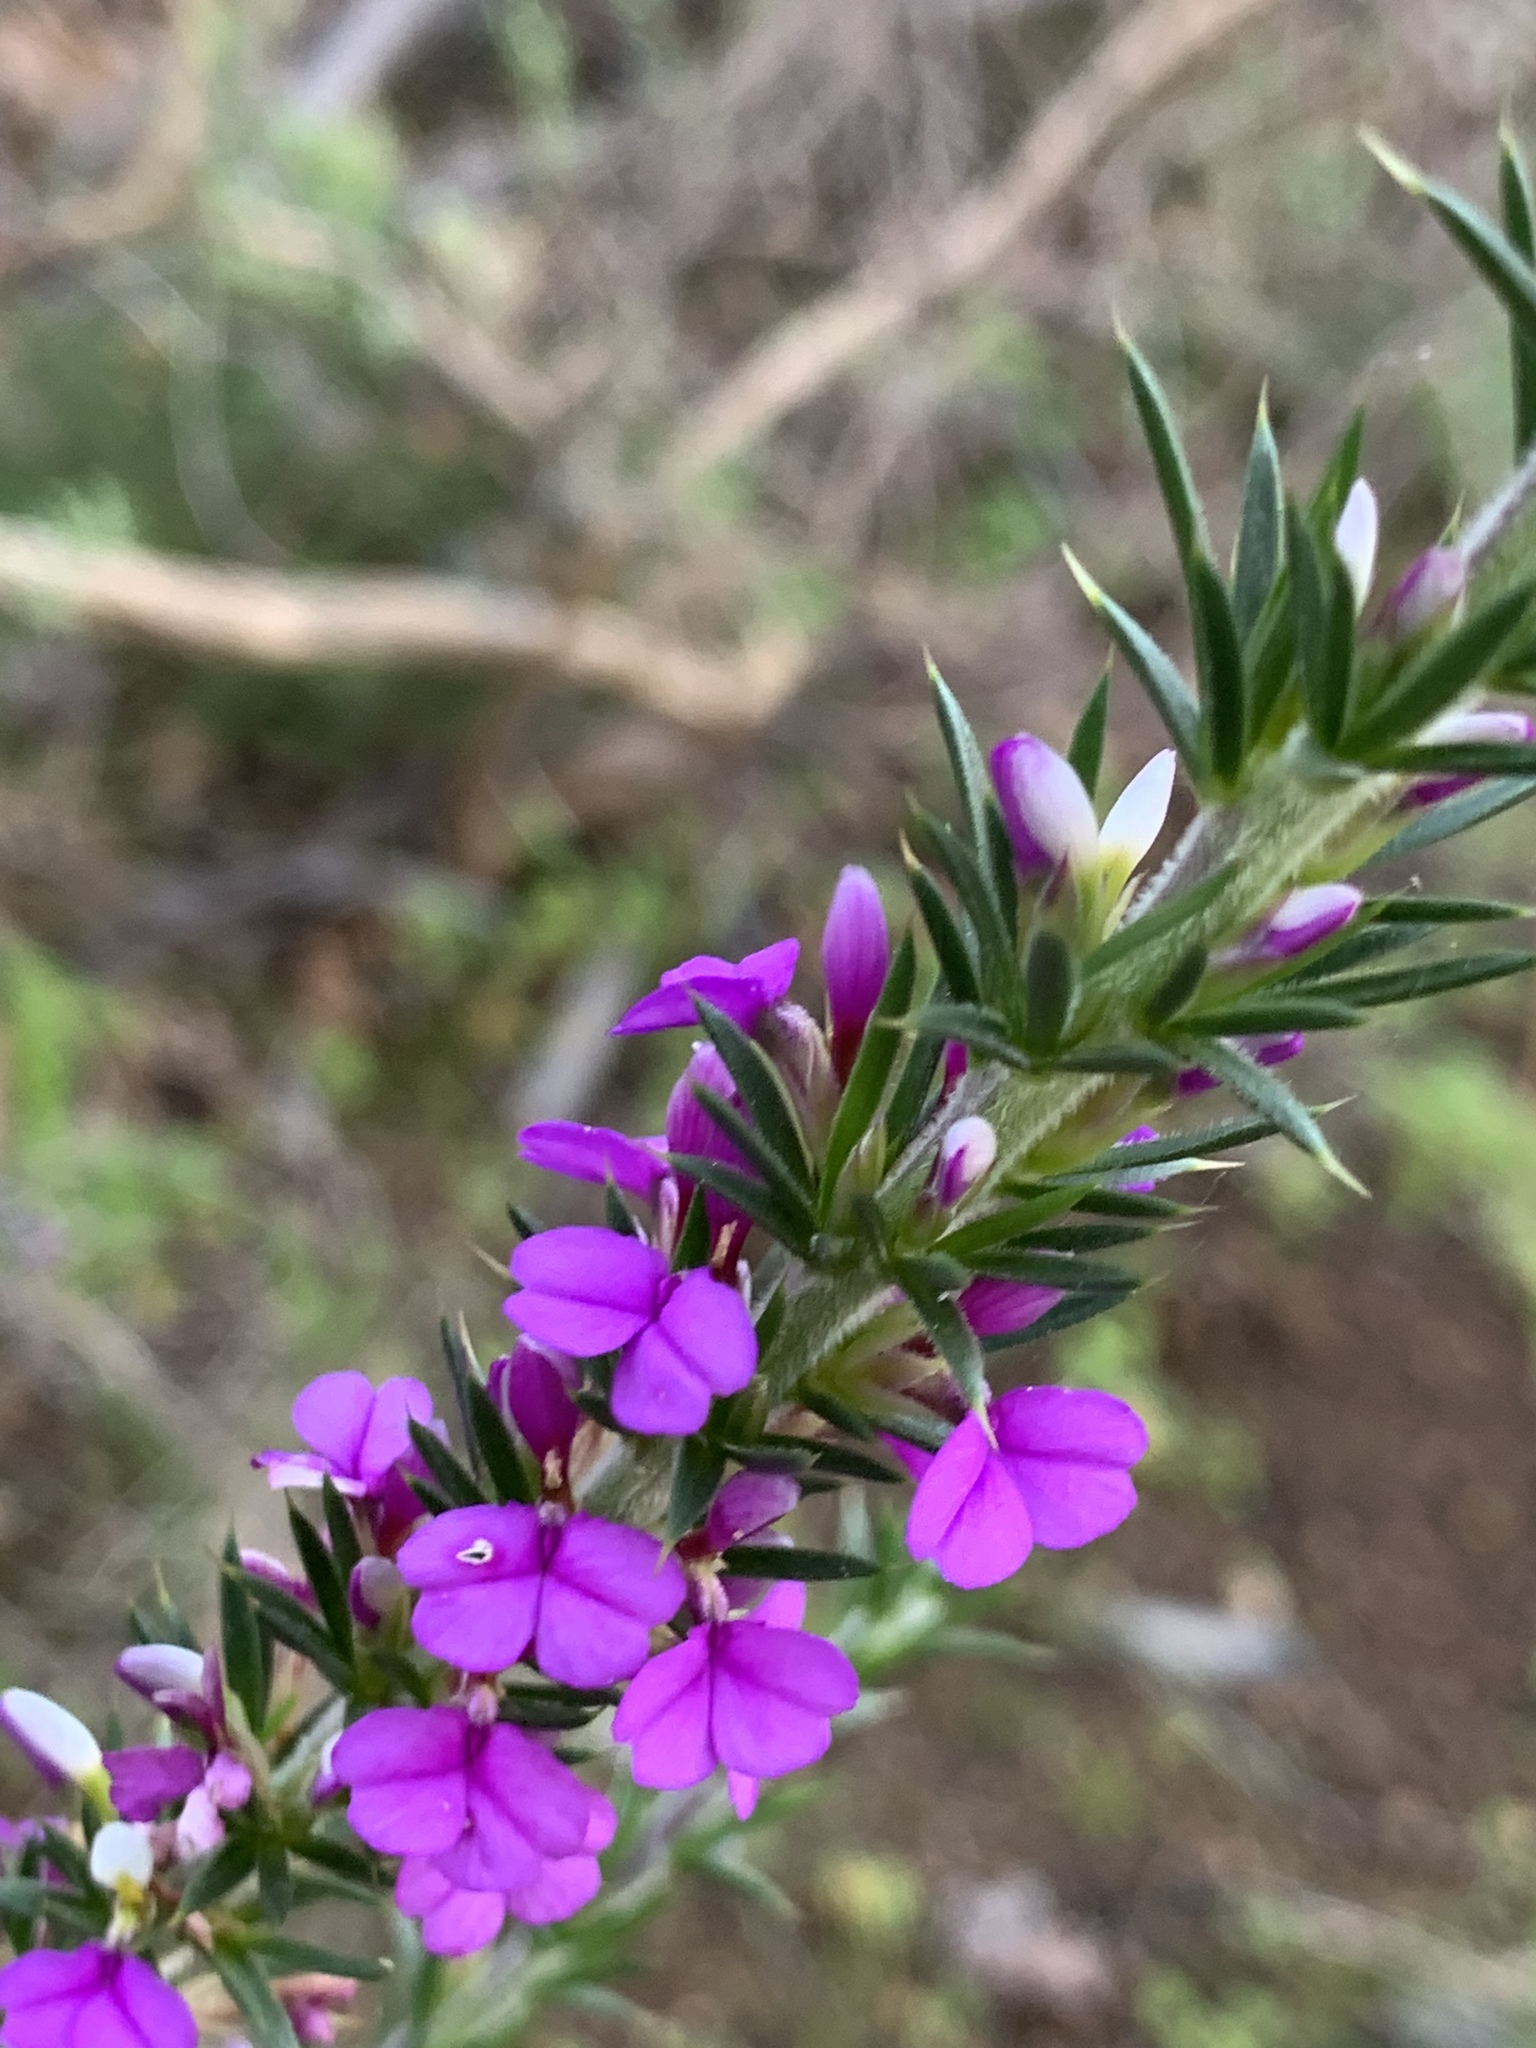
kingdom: Plantae
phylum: Tracheophyta
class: Magnoliopsida
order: Fabales
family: Polygalaceae
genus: Muraltia
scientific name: Muraltia heisteria
